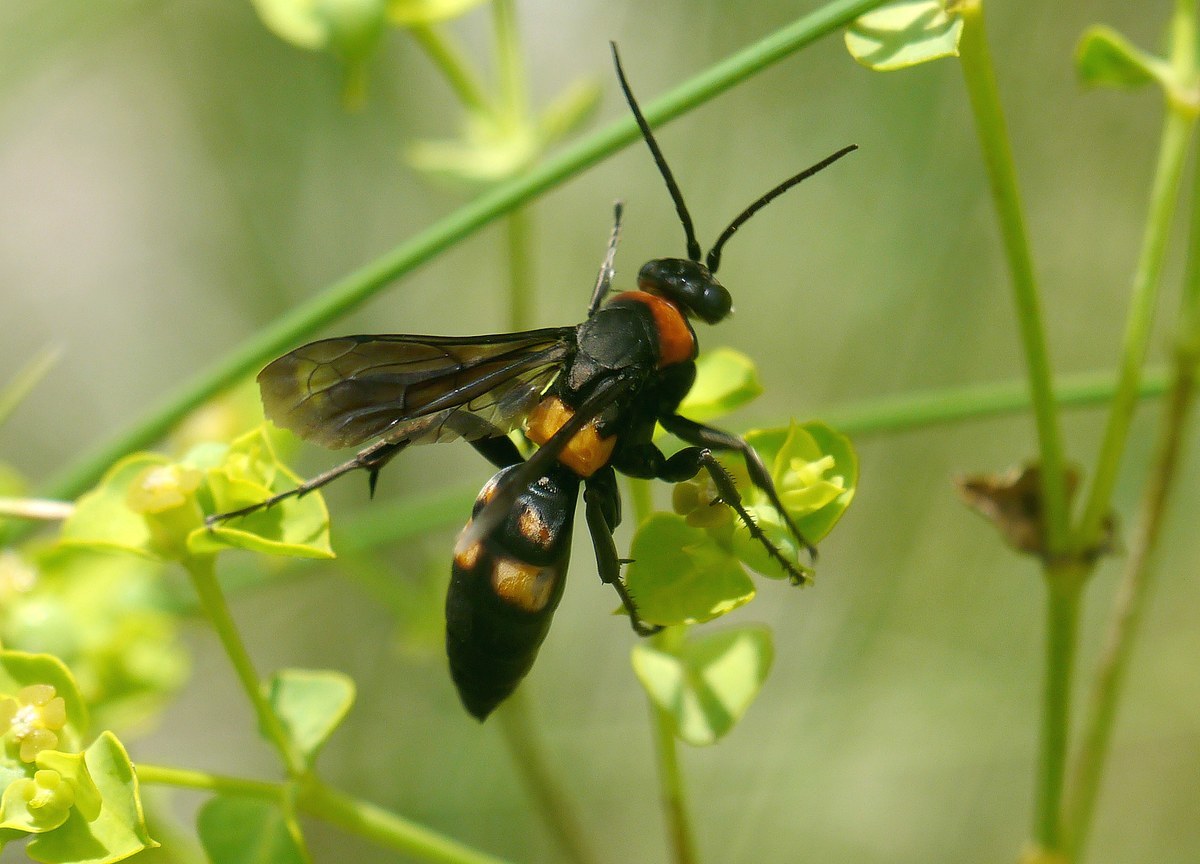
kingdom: Animalia
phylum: Arthropoda
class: Insecta
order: Hymenoptera
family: Pompilidae
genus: Eoferreola
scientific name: Eoferreola erythraea
